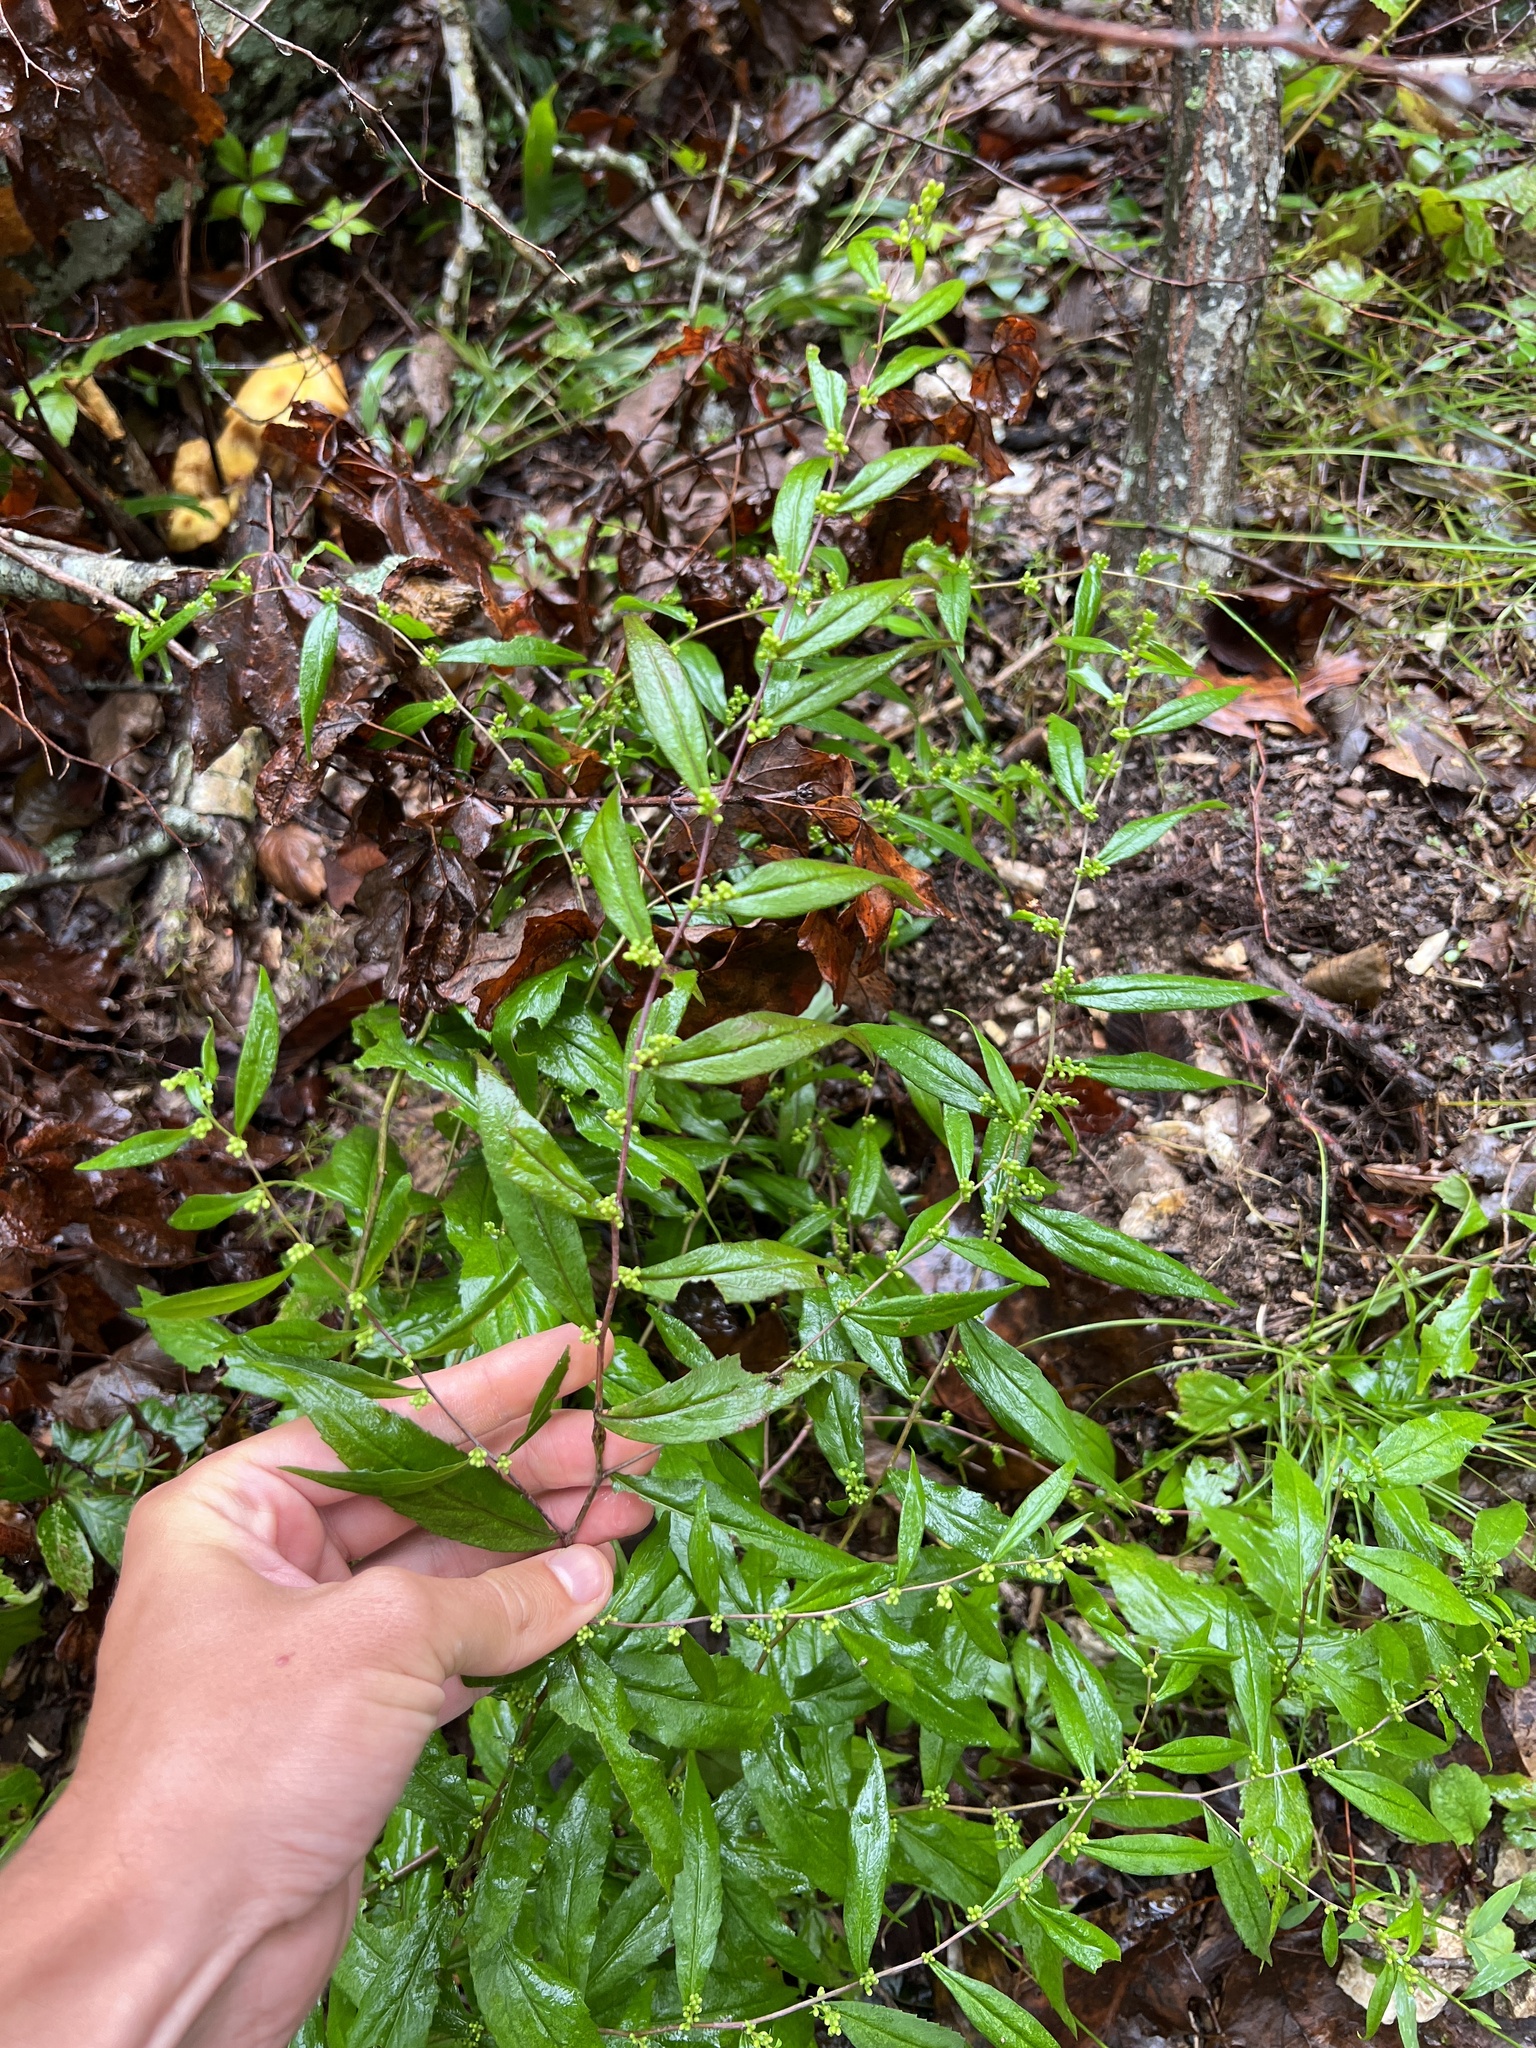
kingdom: Plantae
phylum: Tracheophyta
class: Magnoliopsida
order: Asterales
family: Asteraceae
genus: Solidago
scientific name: Solidago caesia
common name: Woodland goldenrod
